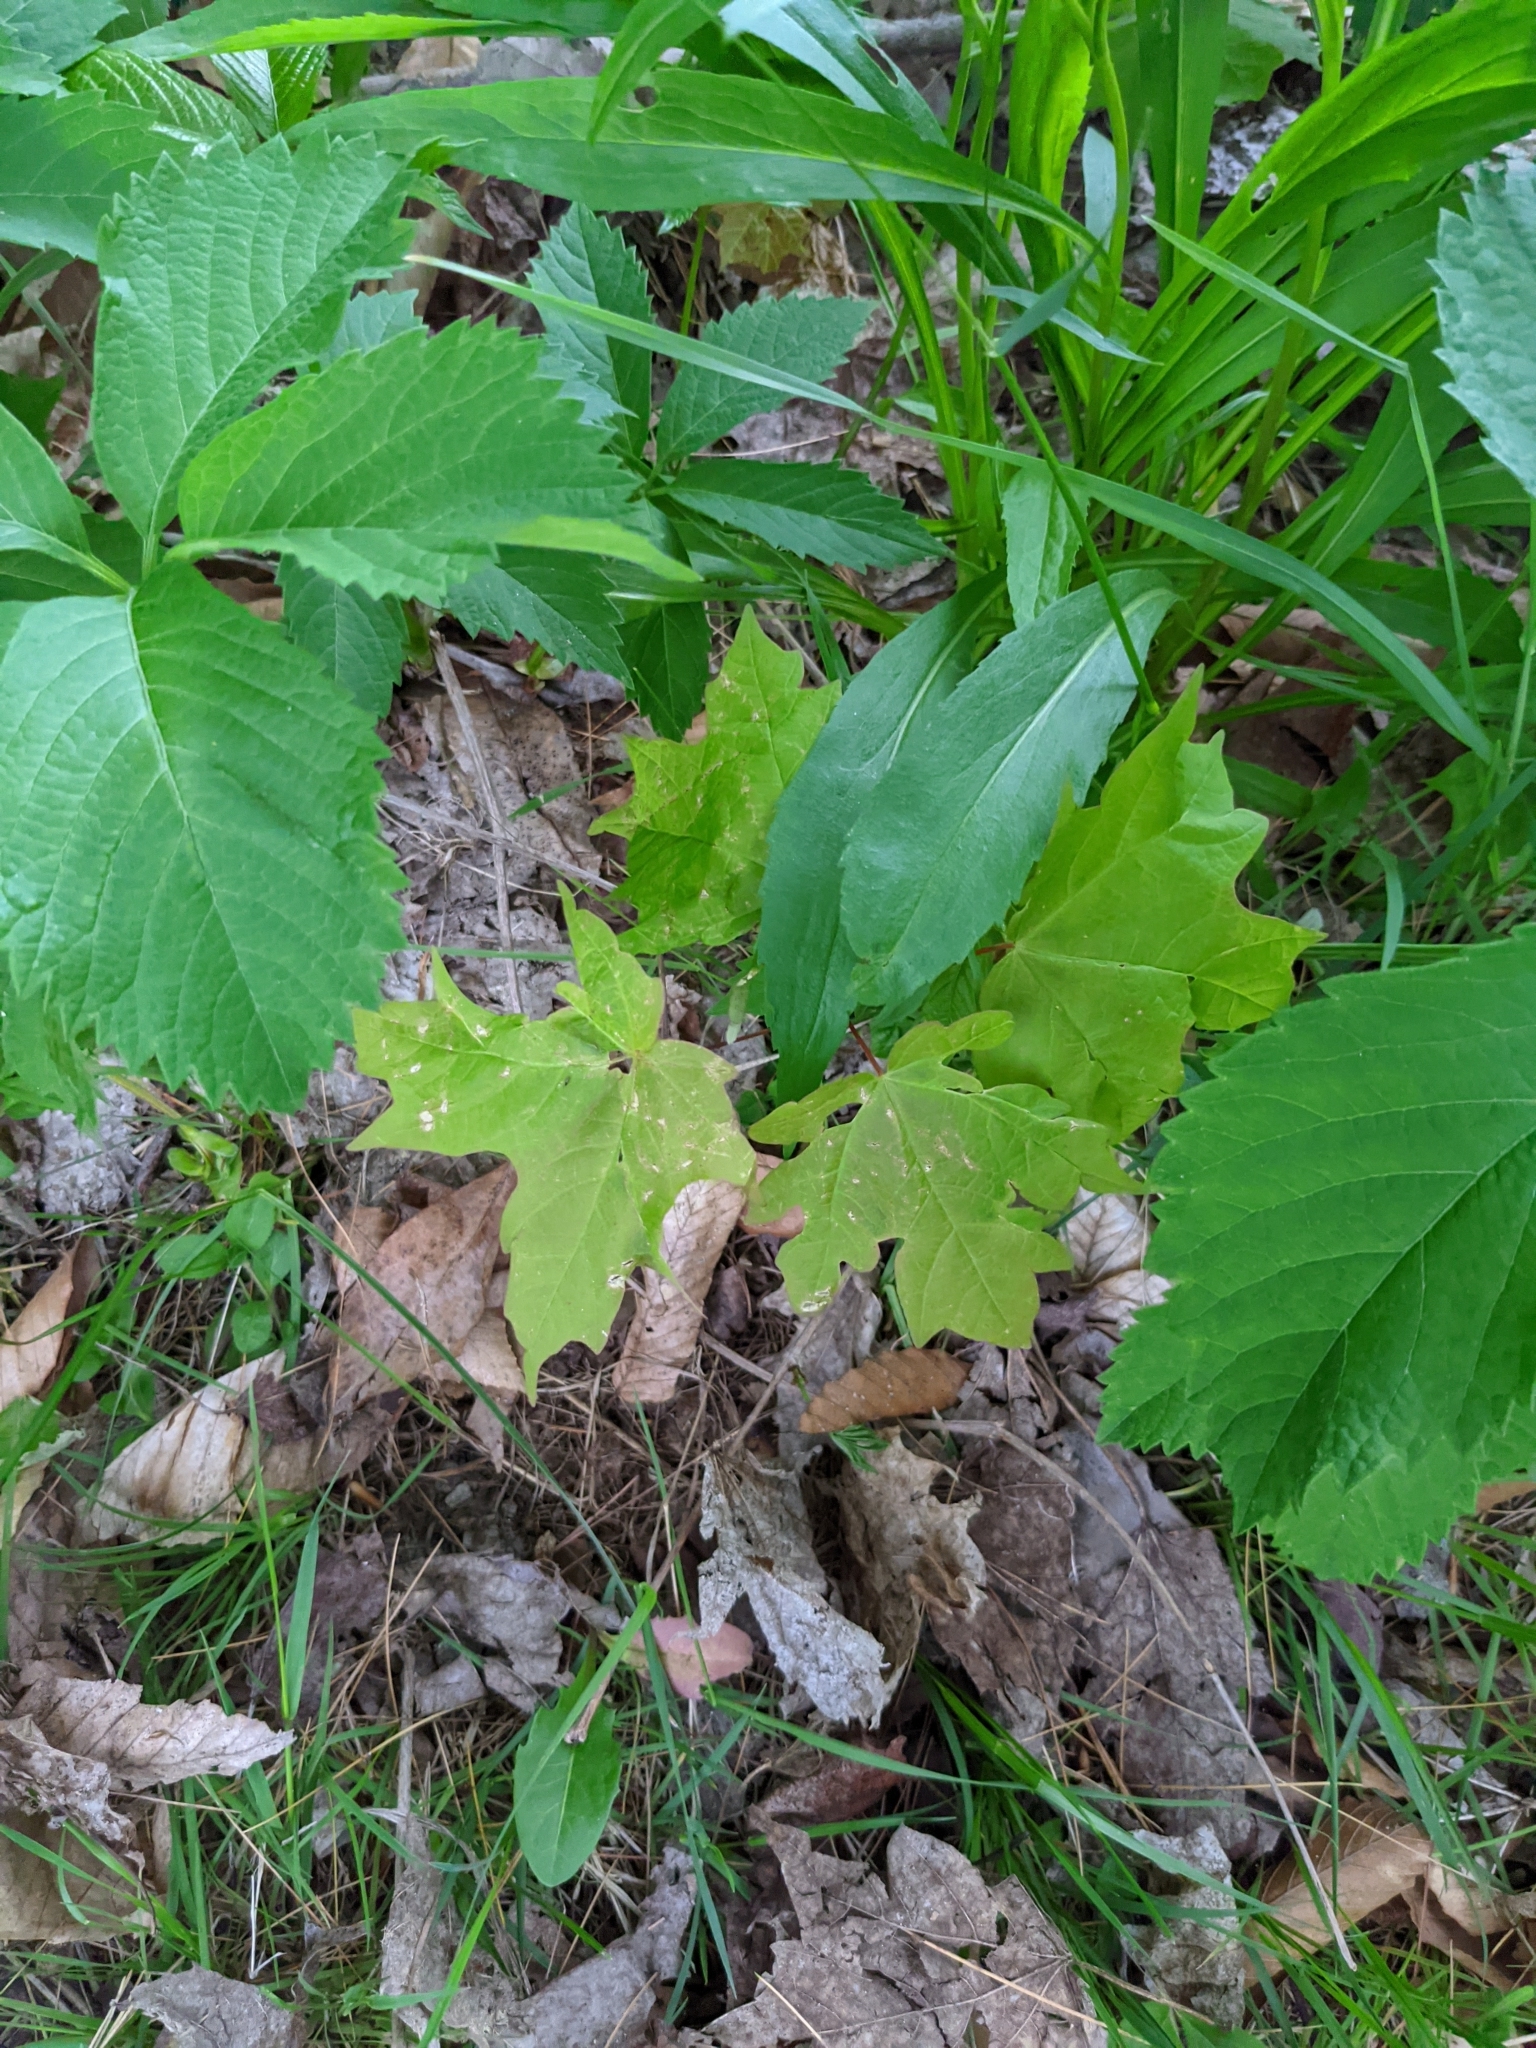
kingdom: Plantae
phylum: Tracheophyta
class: Magnoliopsida
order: Sapindales
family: Sapindaceae
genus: Acer
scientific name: Acer saccharum
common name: Sugar maple
